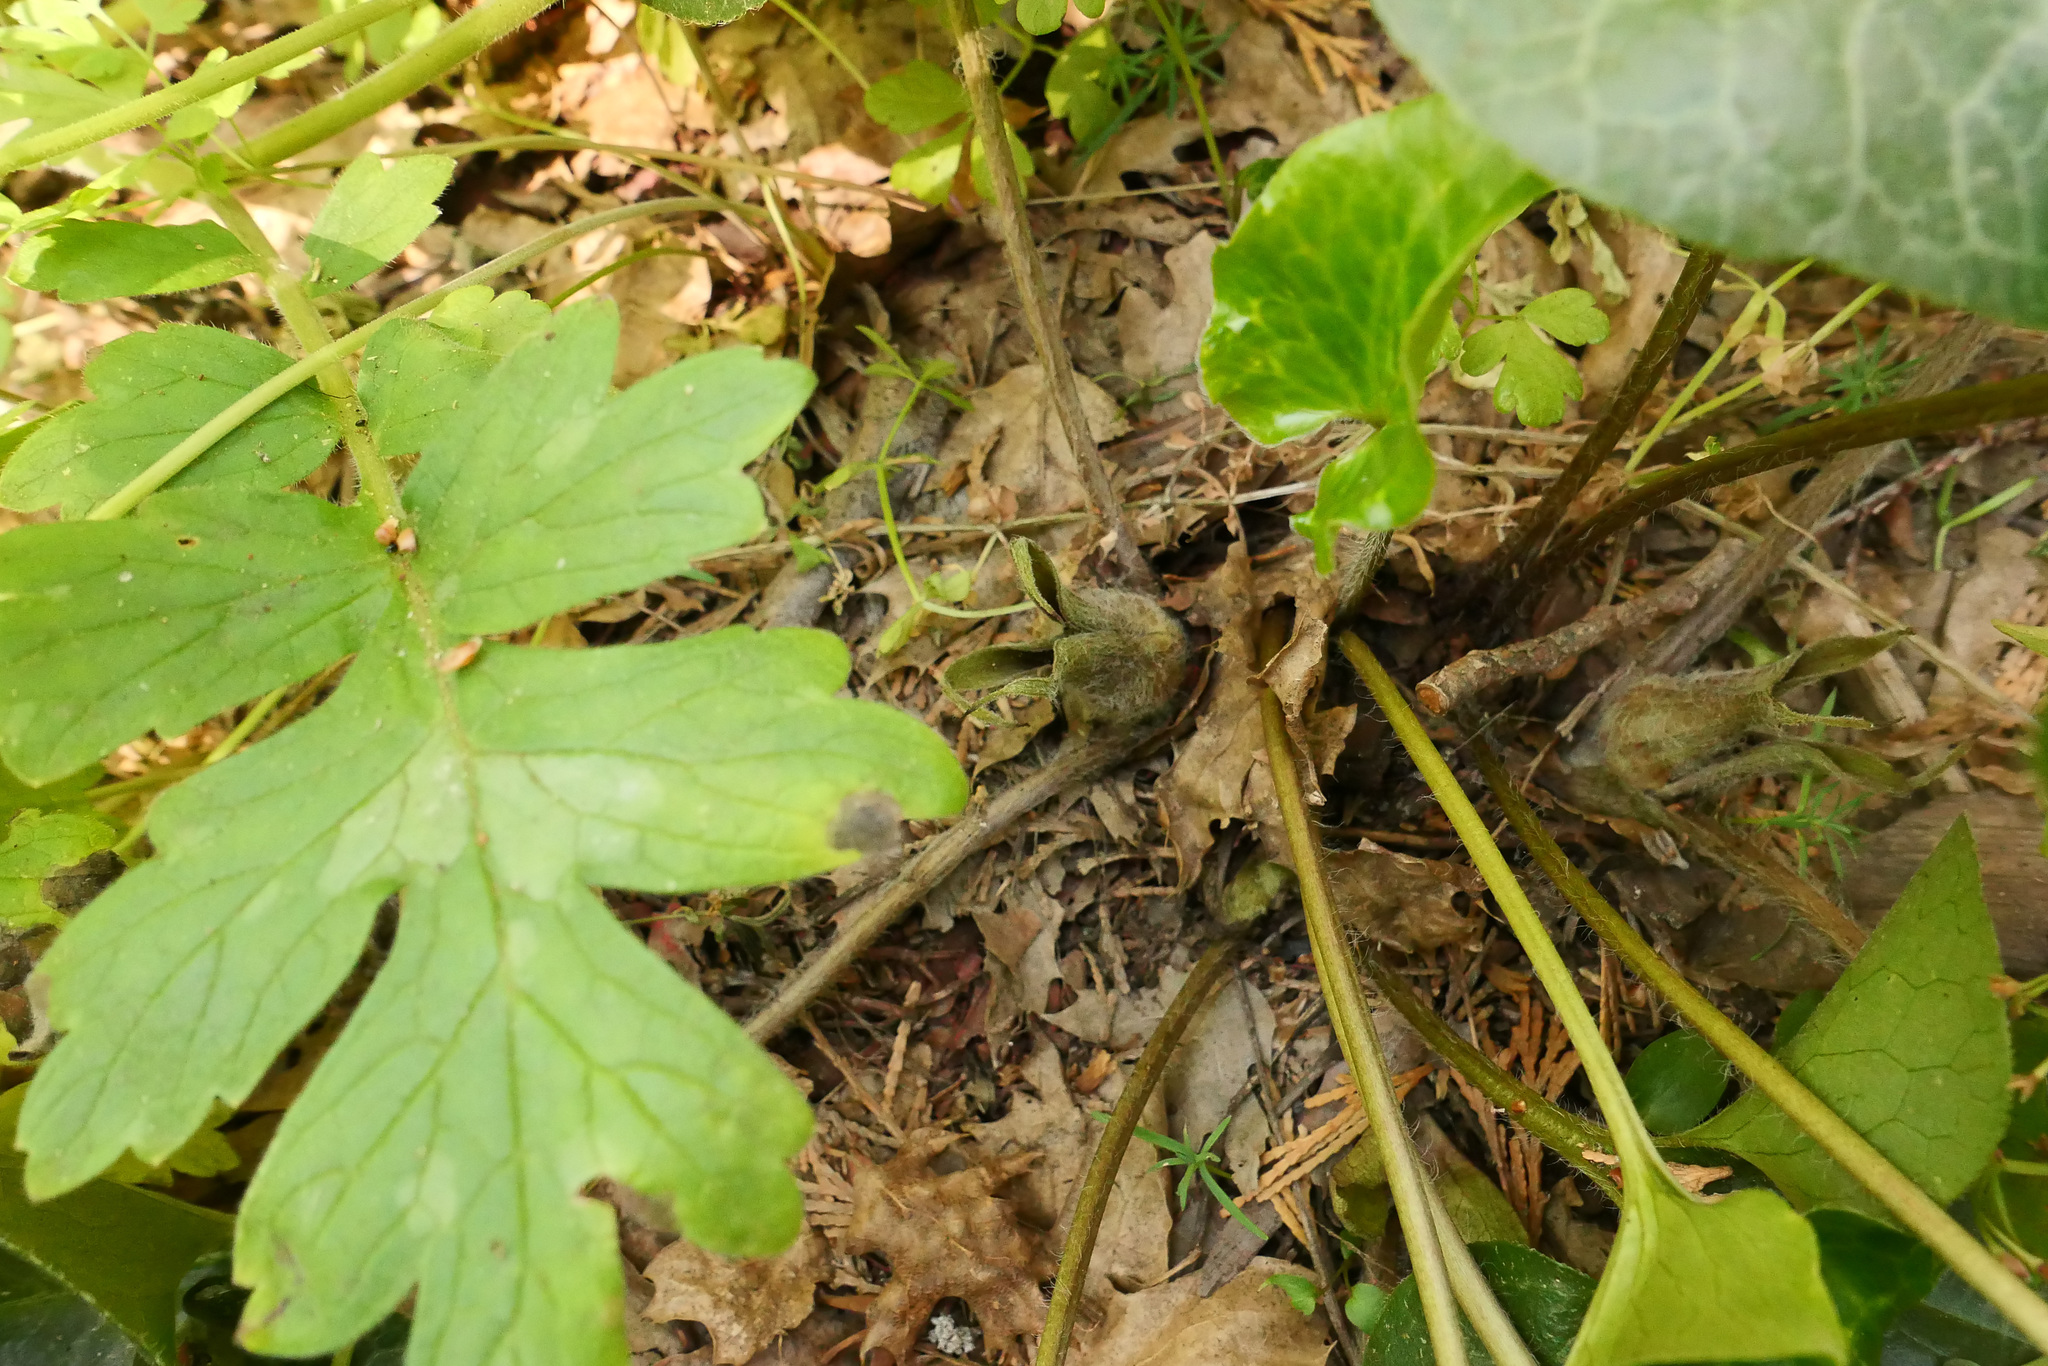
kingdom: Plantae
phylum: Tracheophyta
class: Magnoliopsida
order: Piperales
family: Aristolochiaceae
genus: Asarum
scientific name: Asarum hartwegii
